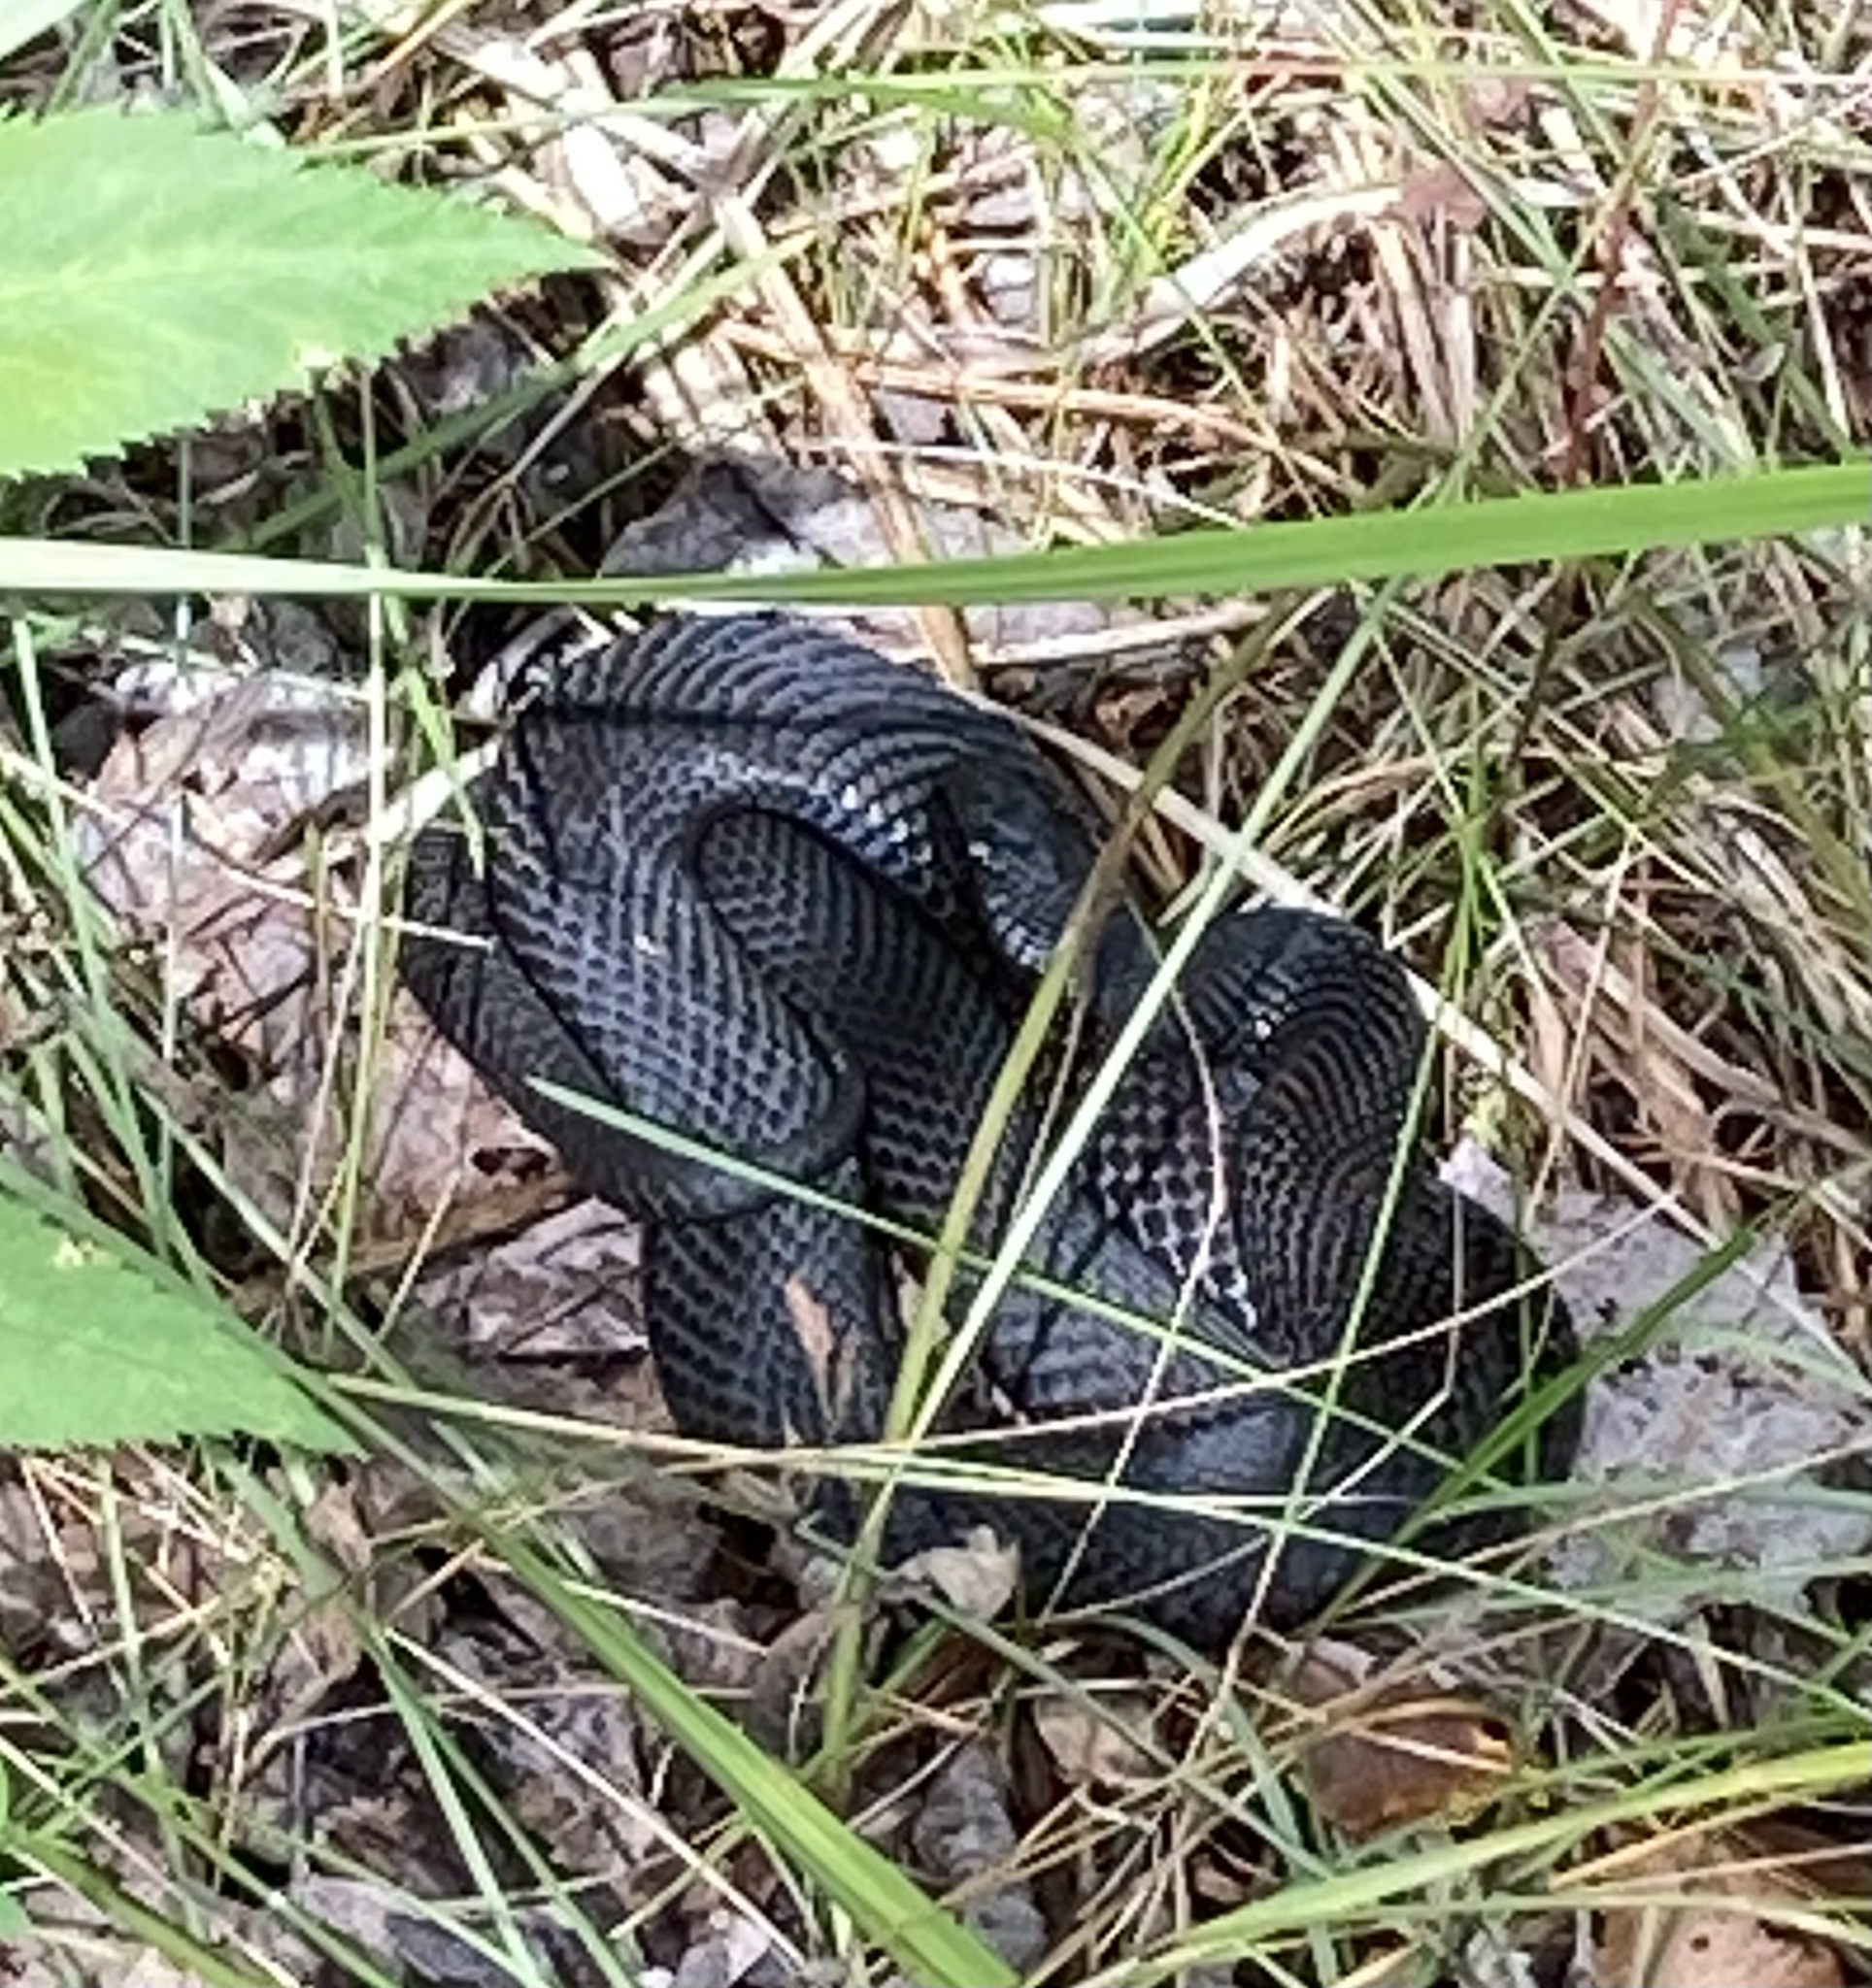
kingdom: Animalia
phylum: Chordata
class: Squamata
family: Viperidae
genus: Vipera
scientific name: Vipera berus
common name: Adder
